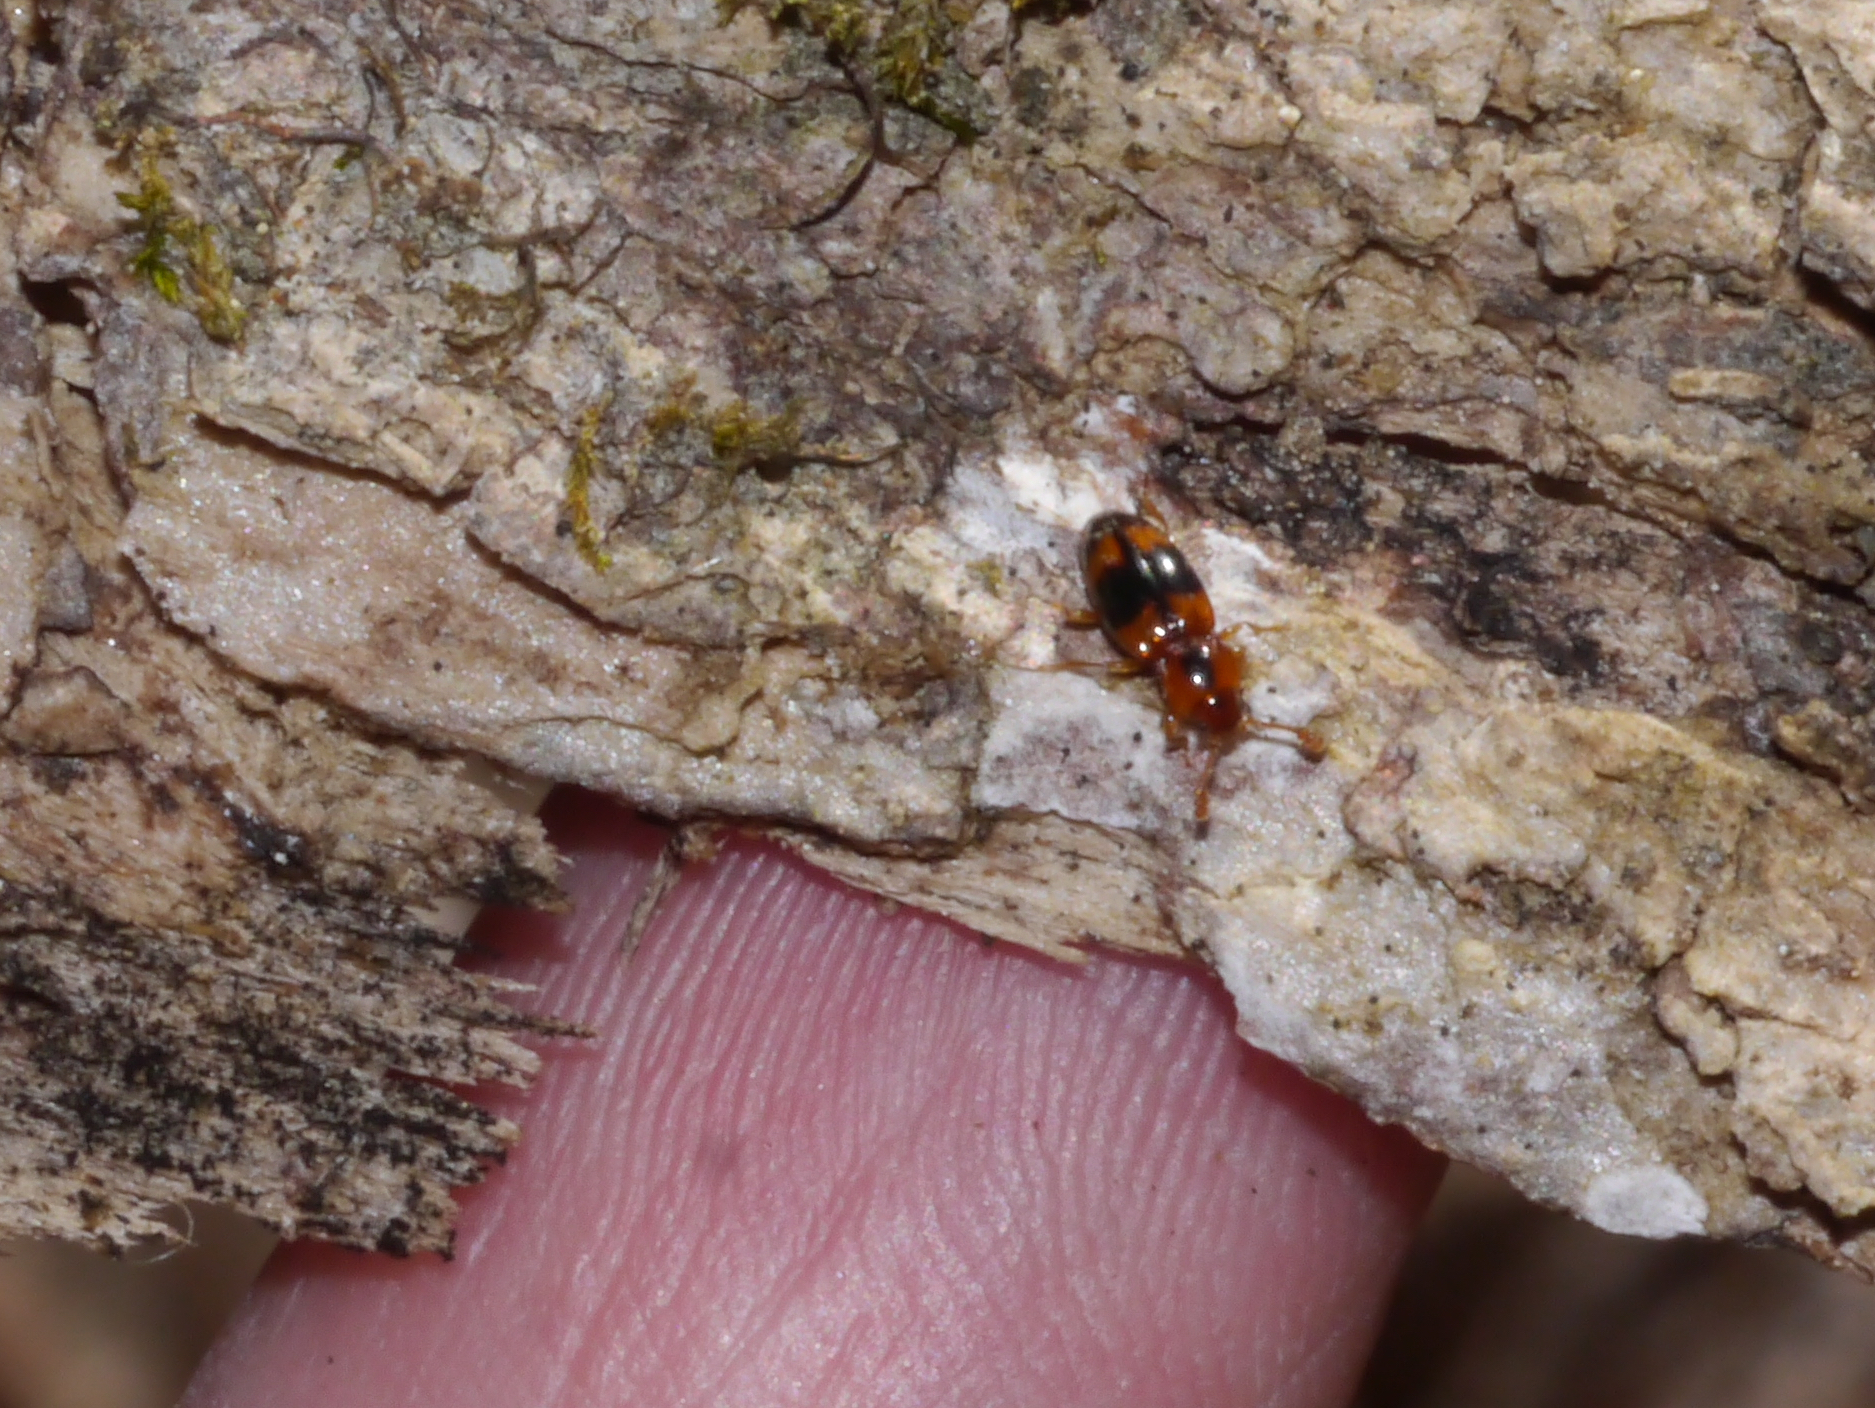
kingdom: Animalia
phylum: Arthropoda
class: Insecta
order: Coleoptera
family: Endomychidae
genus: Phymaphora
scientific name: Phymaphora pulchella
